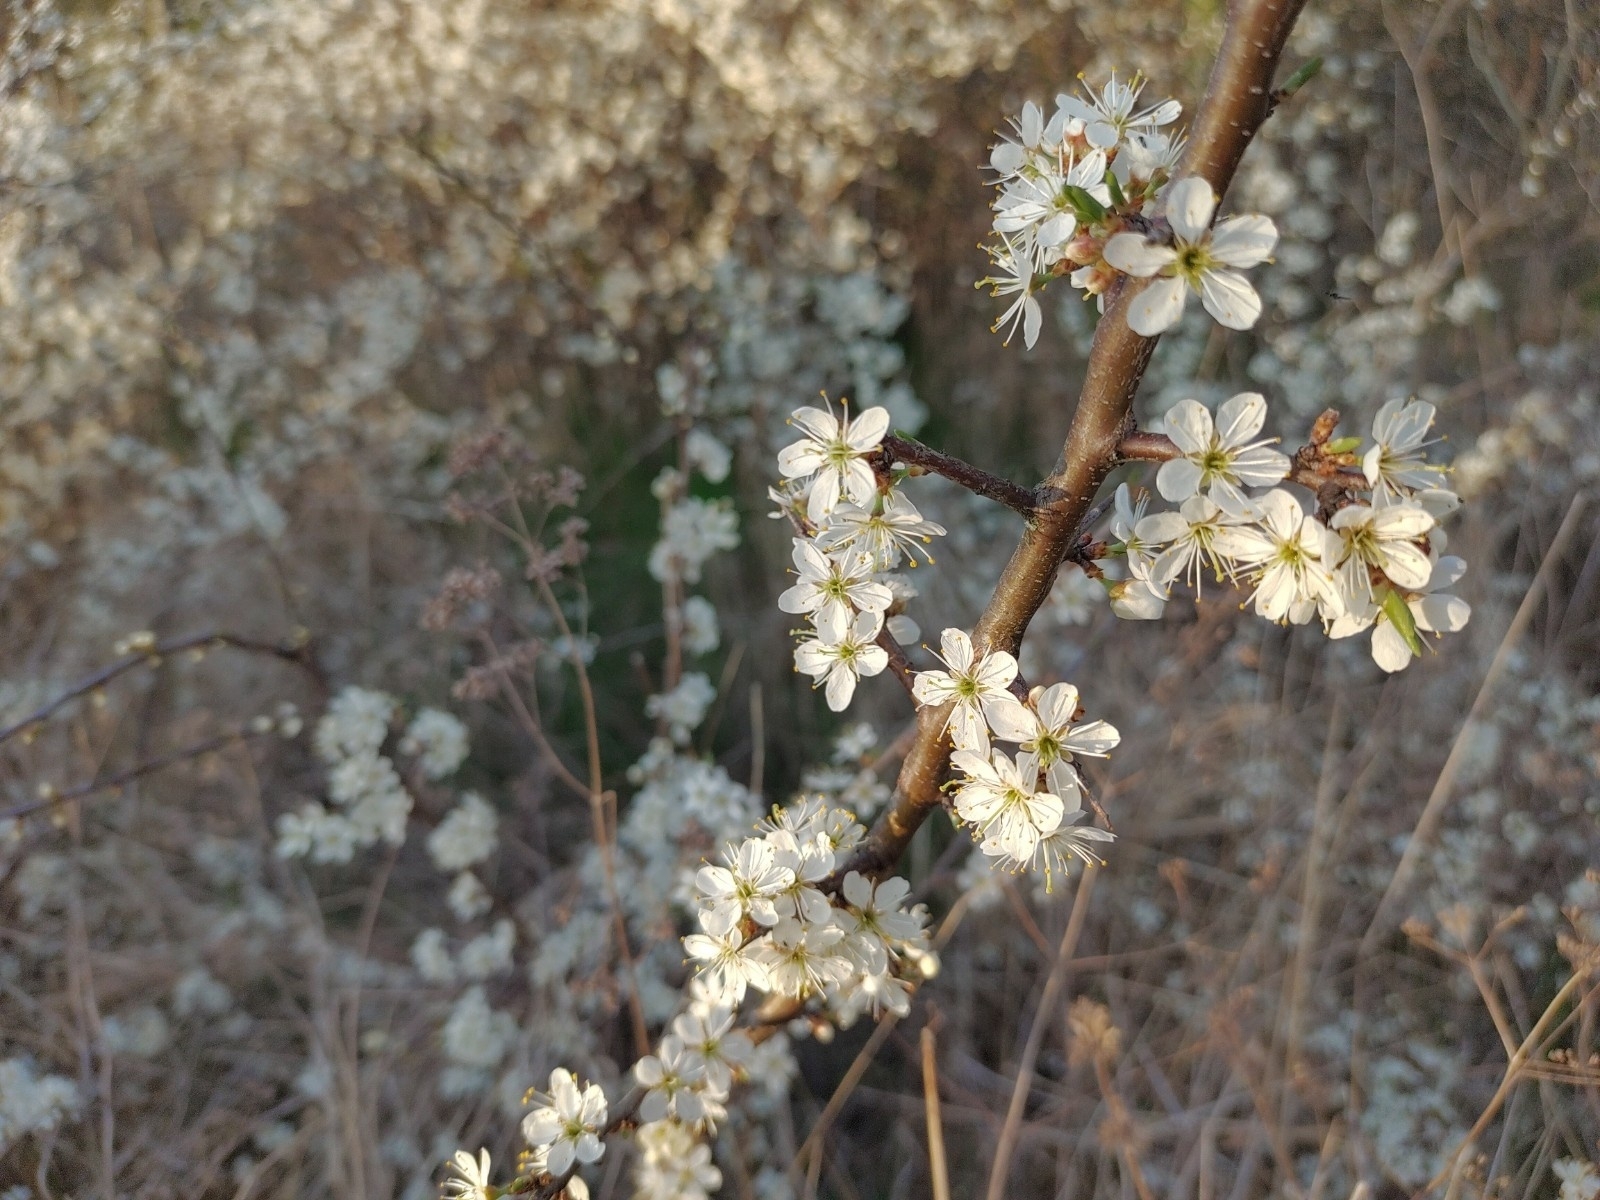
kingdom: Plantae
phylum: Tracheophyta
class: Magnoliopsida
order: Rosales
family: Rosaceae
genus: Prunus
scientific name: Prunus spinosa
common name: Blackthorn
